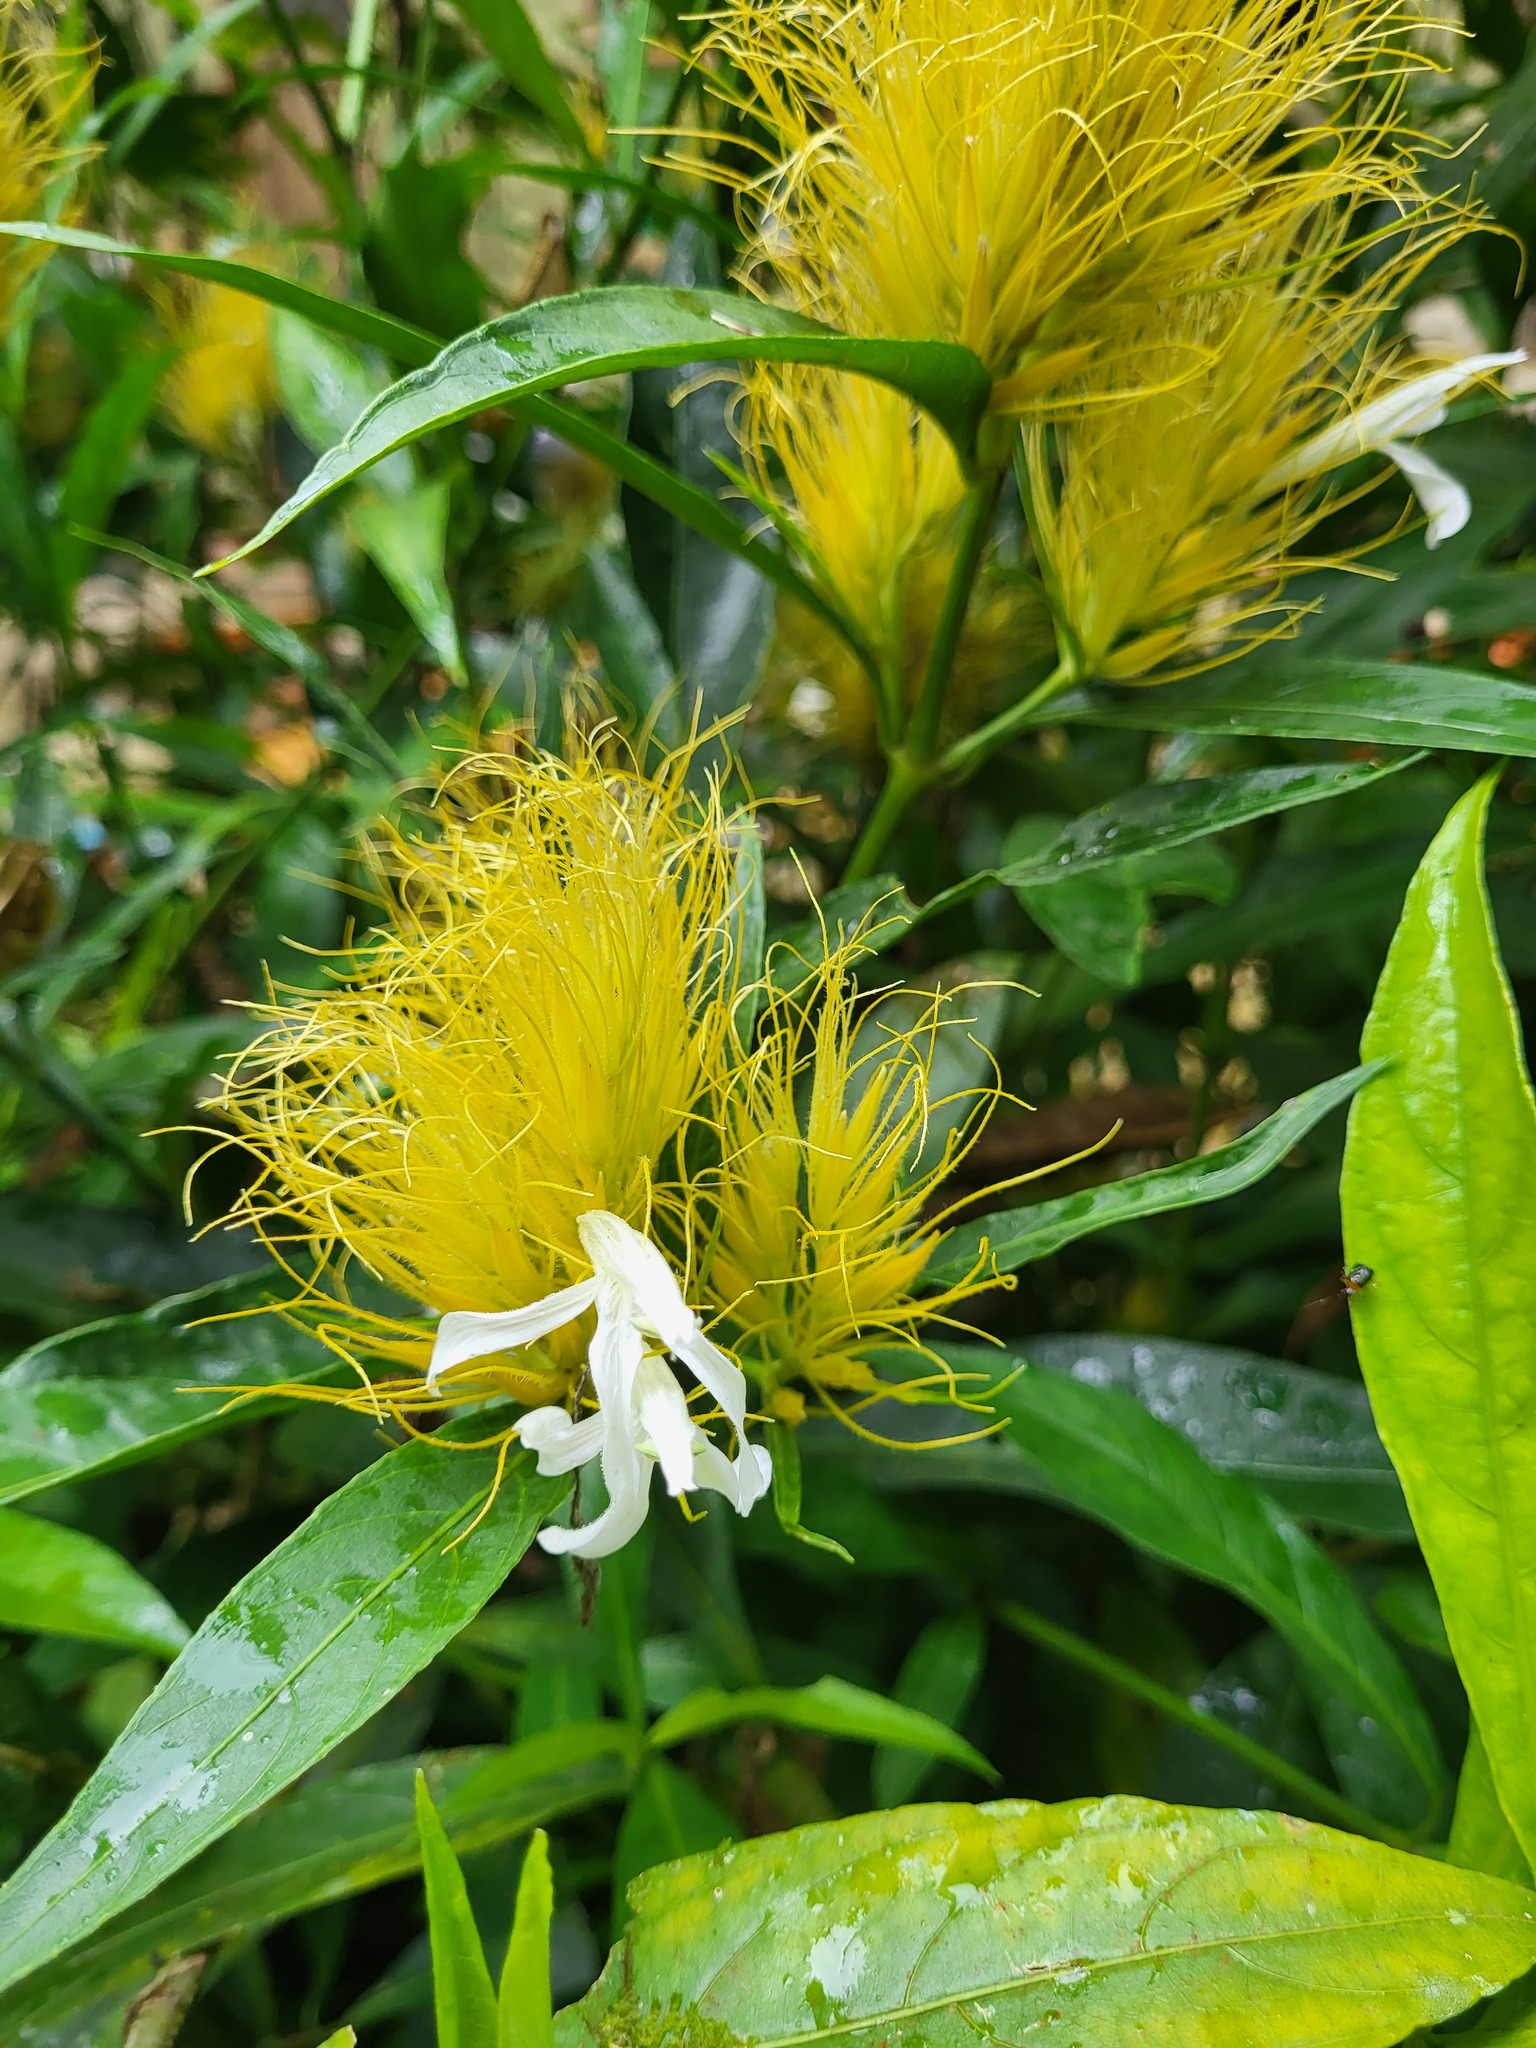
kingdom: Plantae
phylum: Tracheophyta
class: Magnoliopsida
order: Lamiales
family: Acanthaceae
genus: Justicia
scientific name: Justicia croceochlamys
